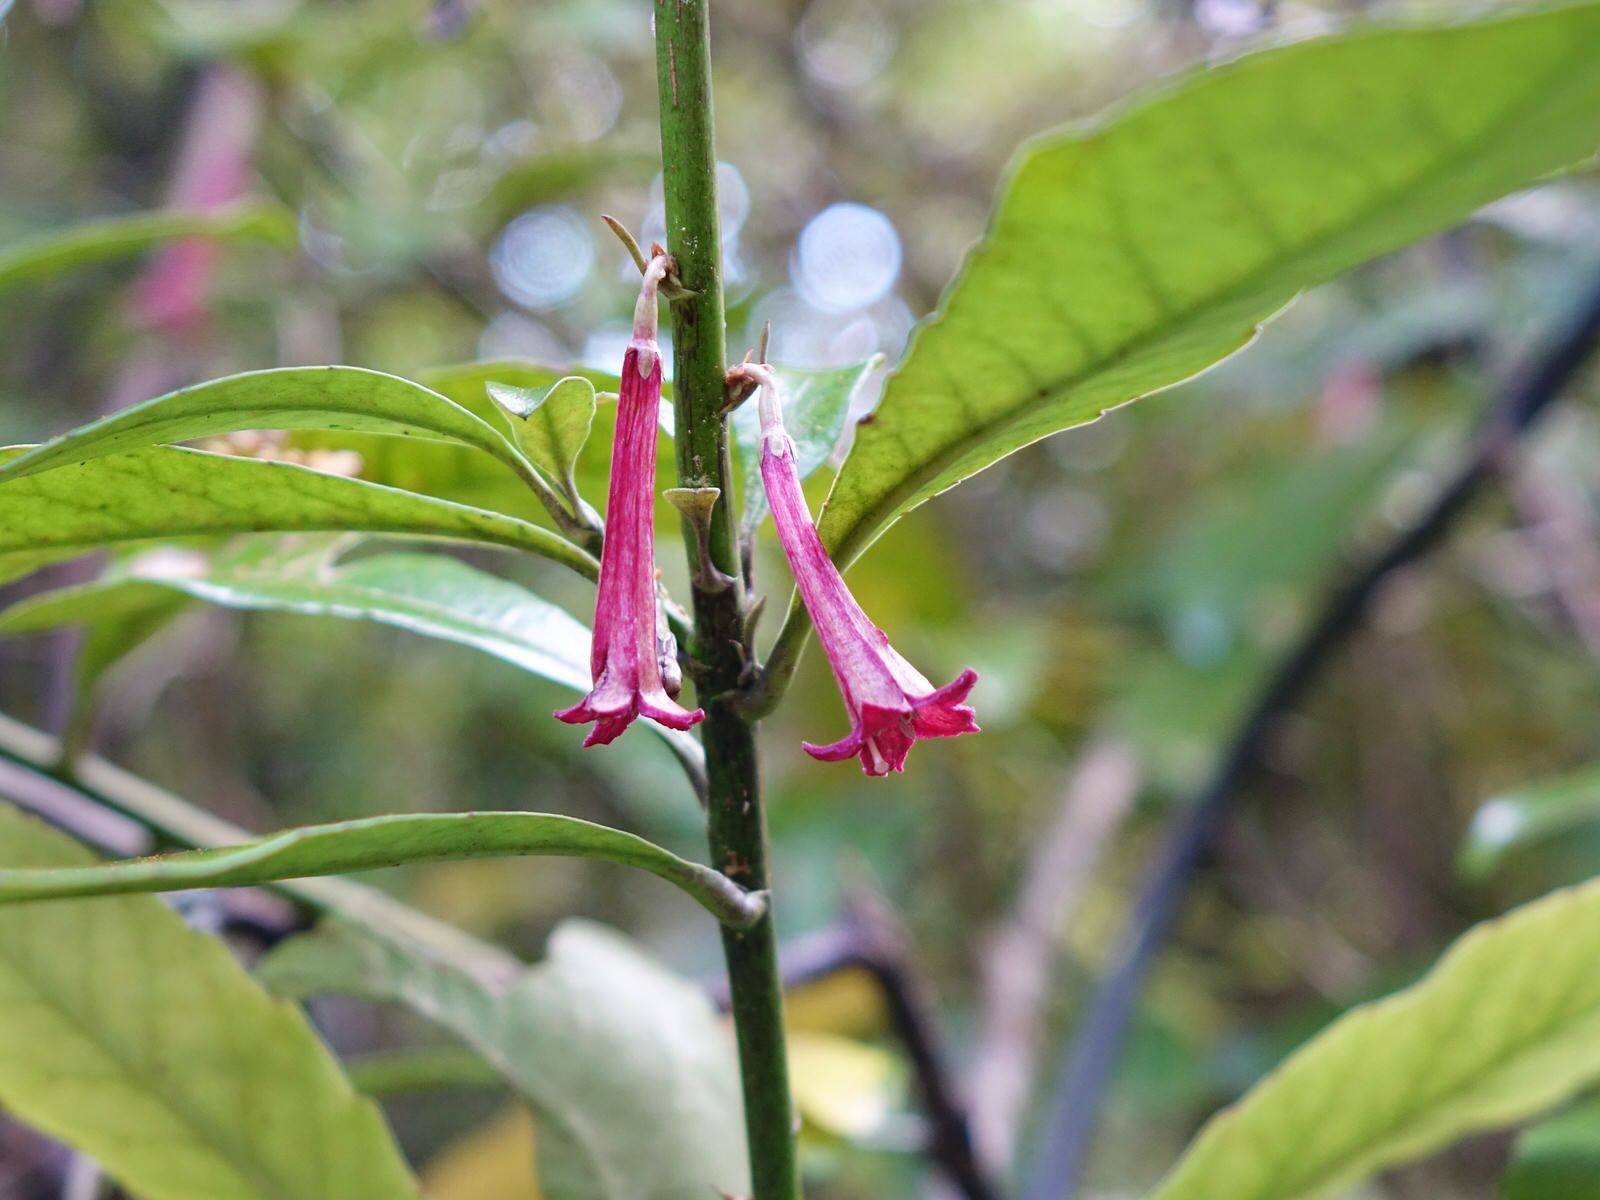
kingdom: Plantae
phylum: Tracheophyta
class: Magnoliopsida
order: Asterales
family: Alseuosmiaceae
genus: Alseuosmia
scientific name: Alseuosmia macrophylla
